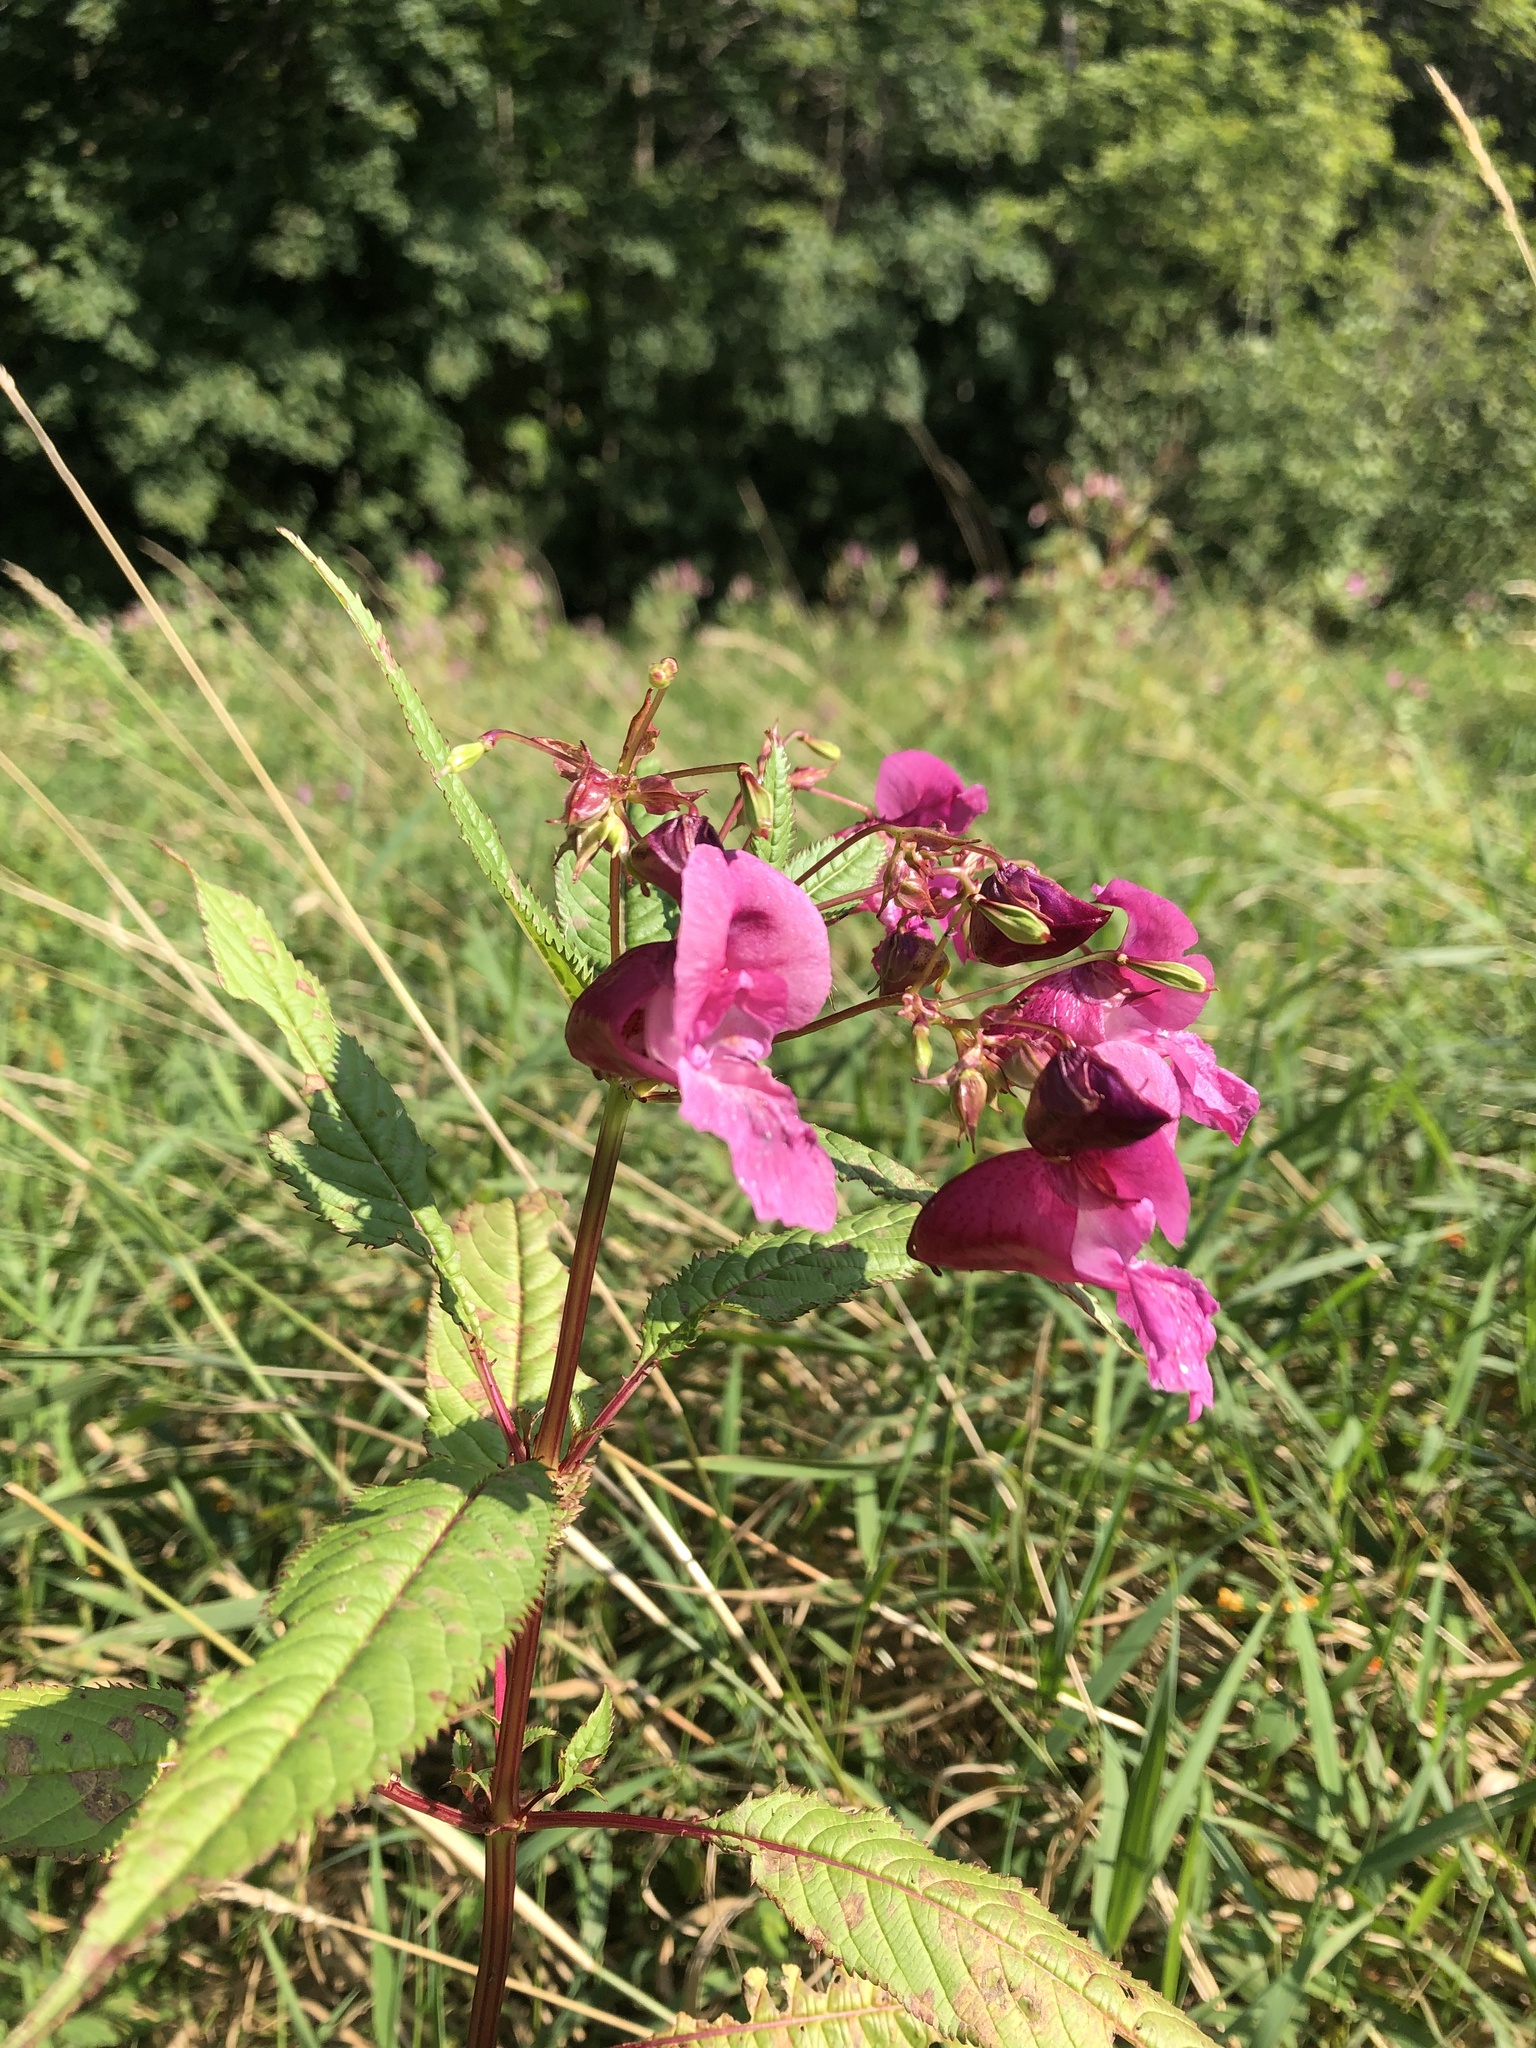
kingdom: Plantae
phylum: Tracheophyta
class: Magnoliopsida
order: Ericales
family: Balsaminaceae
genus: Impatiens
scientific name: Impatiens glandulifera
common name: Himalayan balsam
